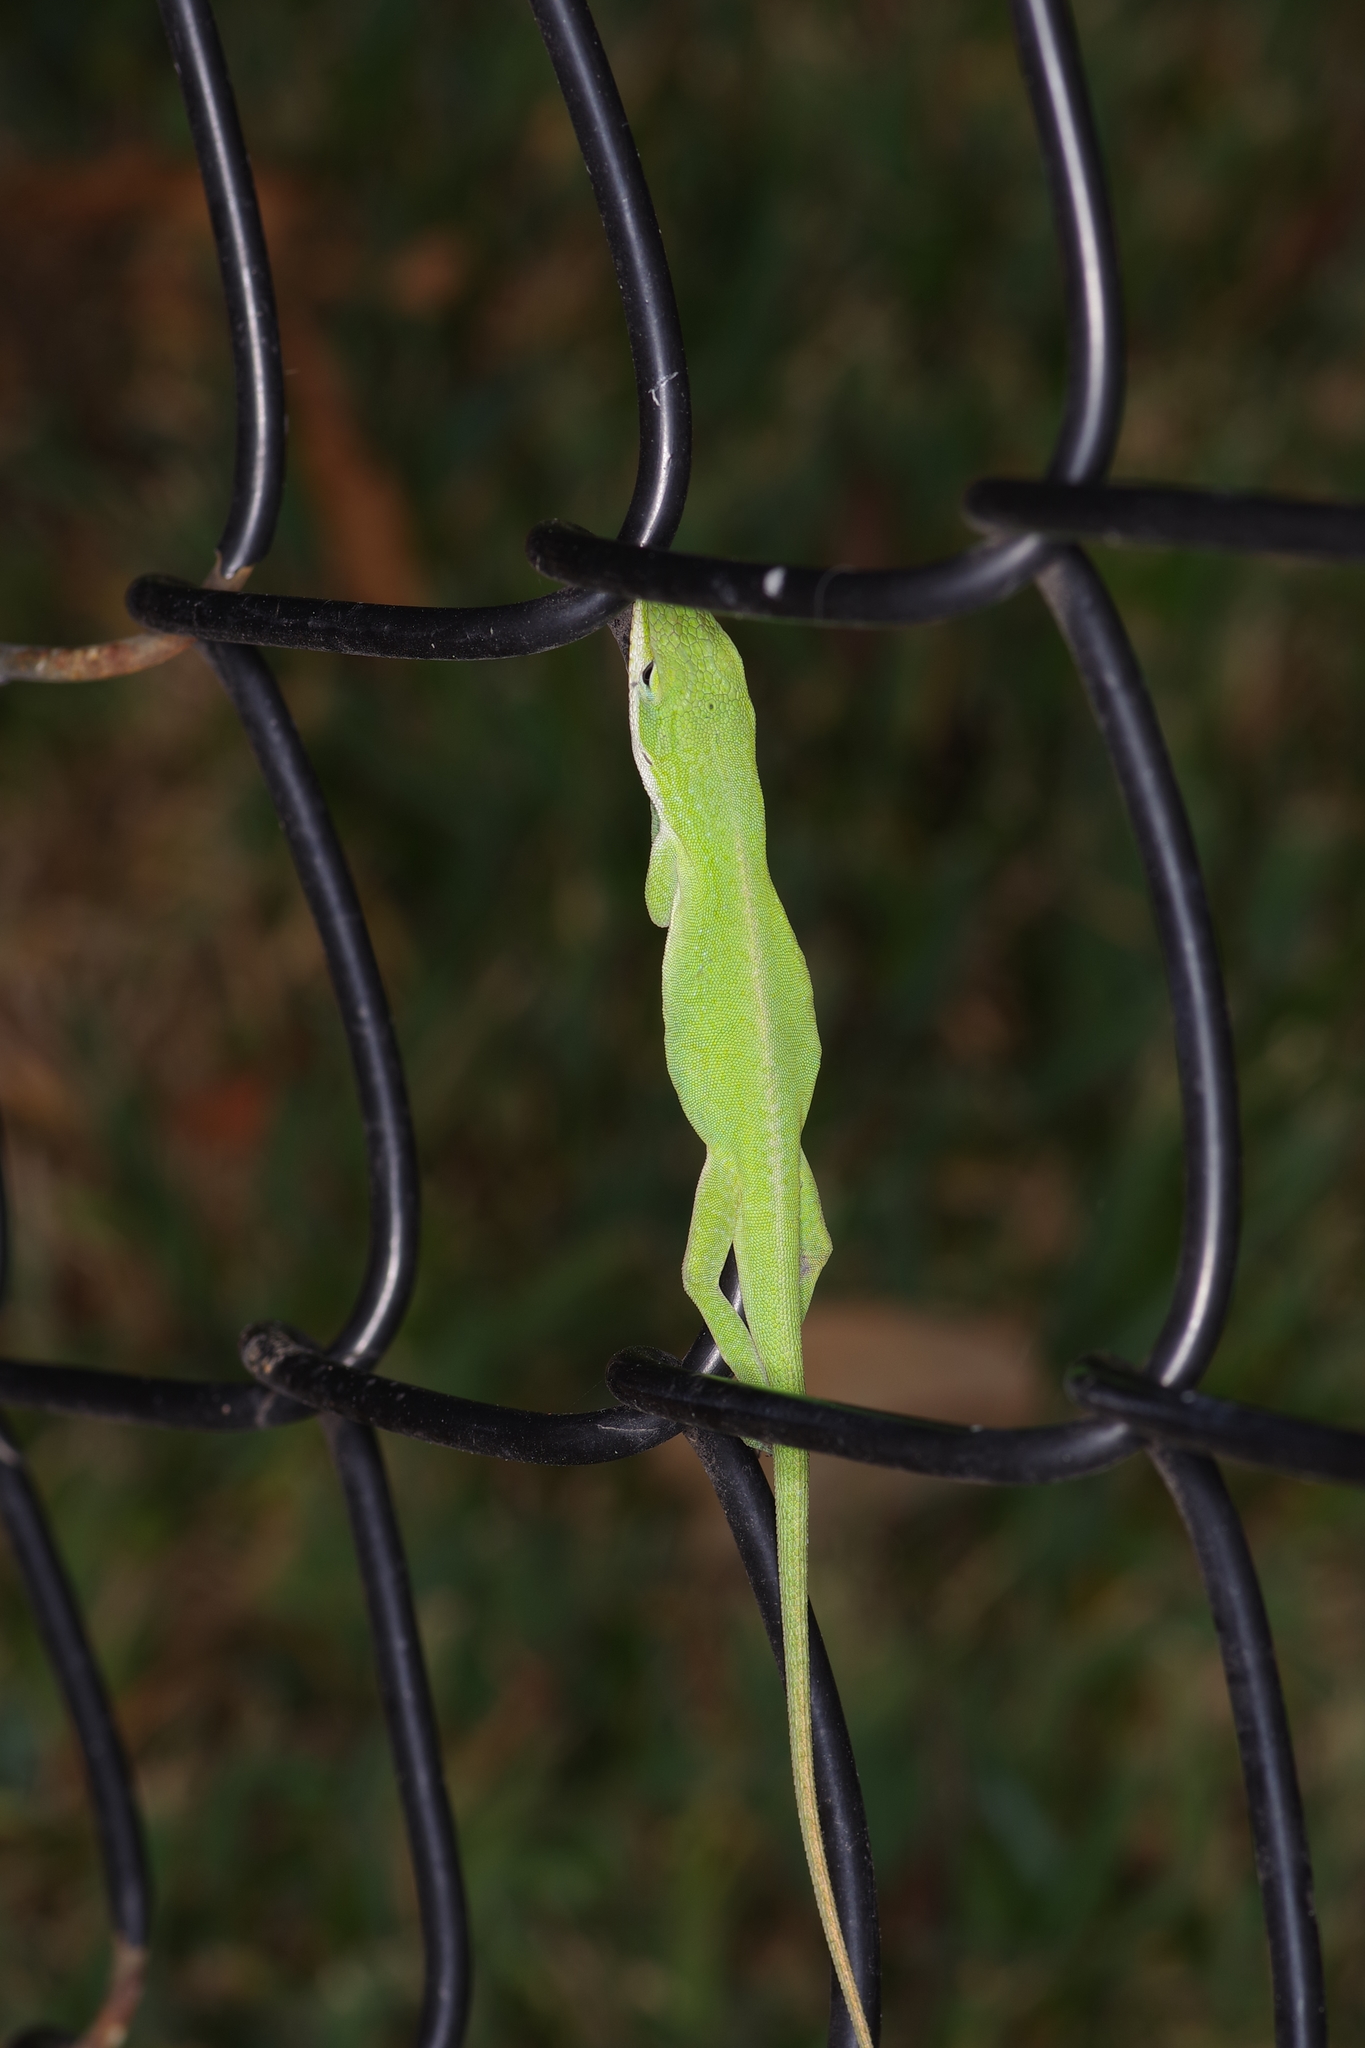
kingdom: Animalia
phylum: Chordata
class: Squamata
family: Dactyloidae
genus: Anolis
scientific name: Anolis carolinensis
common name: Green anole
